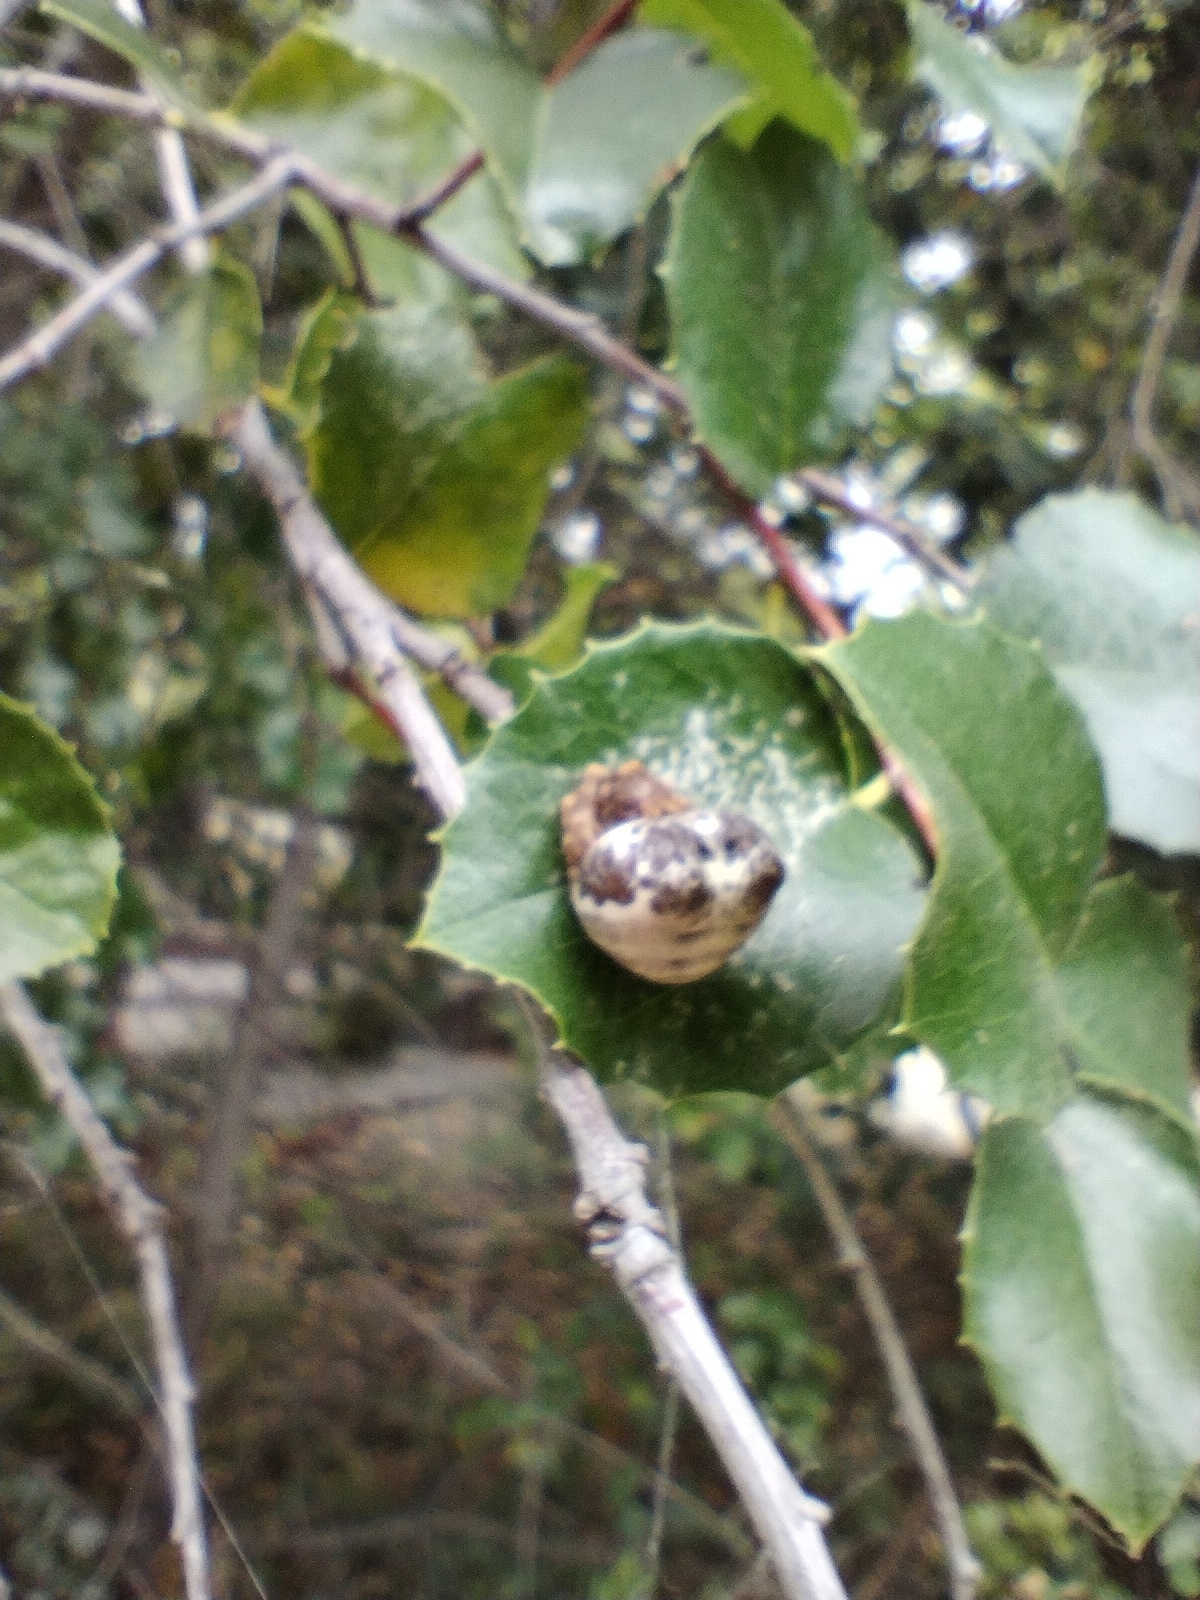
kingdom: Animalia
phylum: Arthropoda
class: Arachnida
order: Araneae
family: Araneidae
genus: Mastophora
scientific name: Mastophora cornigera
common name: Orb weavers
